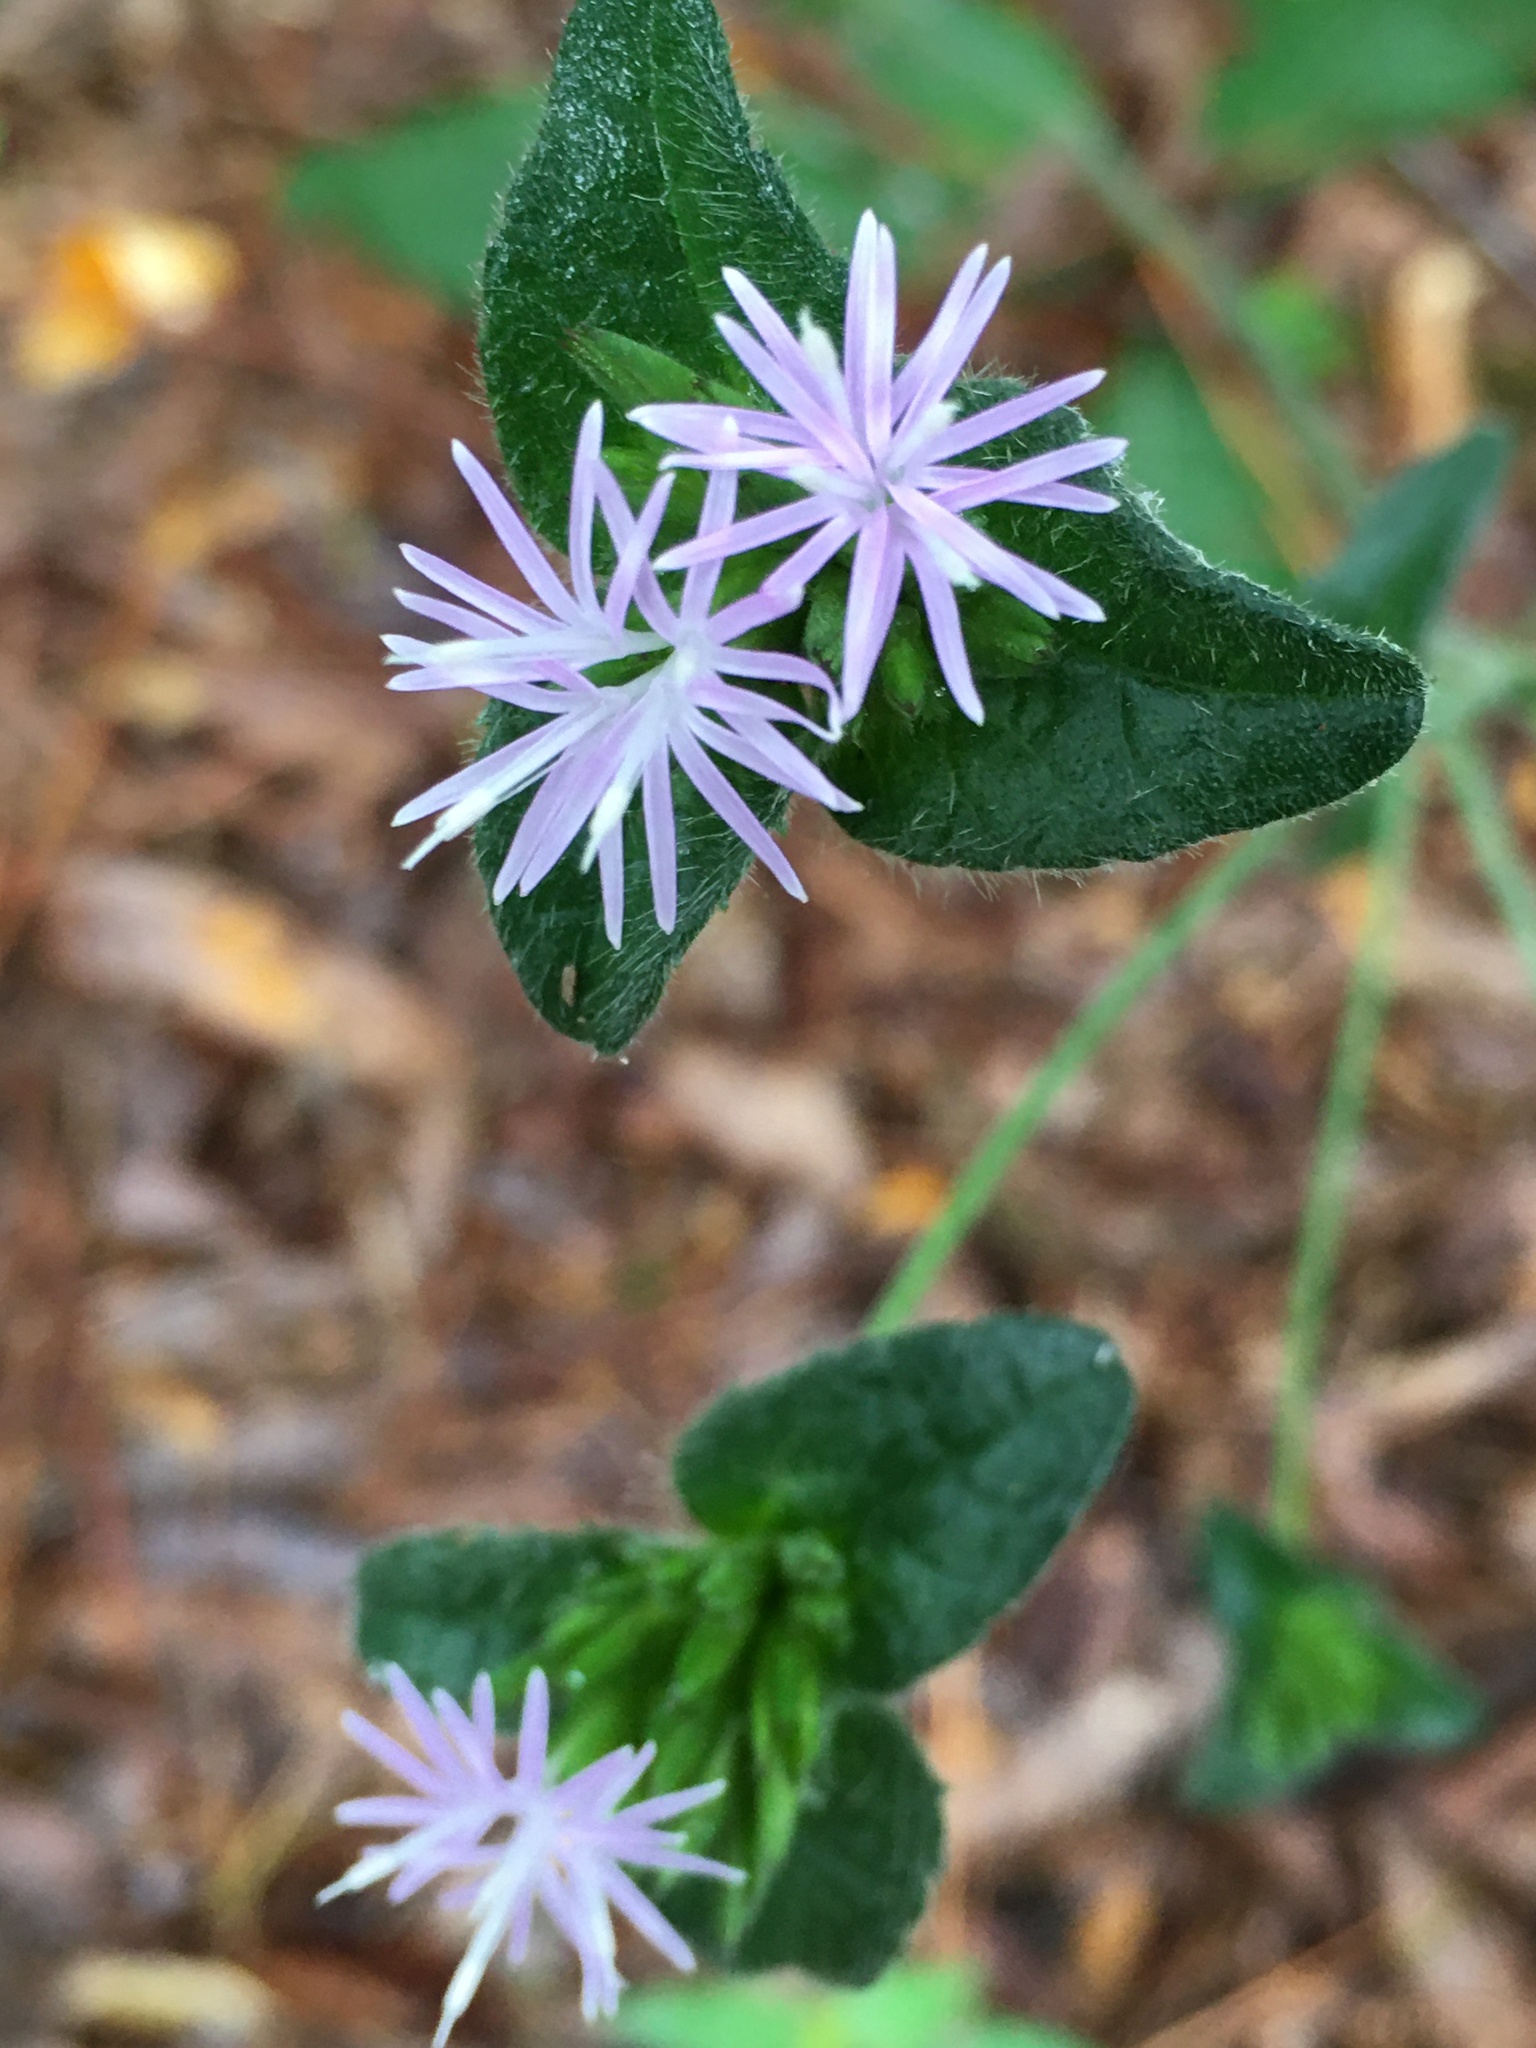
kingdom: Plantae
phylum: Tracheophyta
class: Magnoliopsida
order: Asterales
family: Asteraceae
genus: Elephantopus
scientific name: Elephantopus tomentosus
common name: Tobacco-weed
